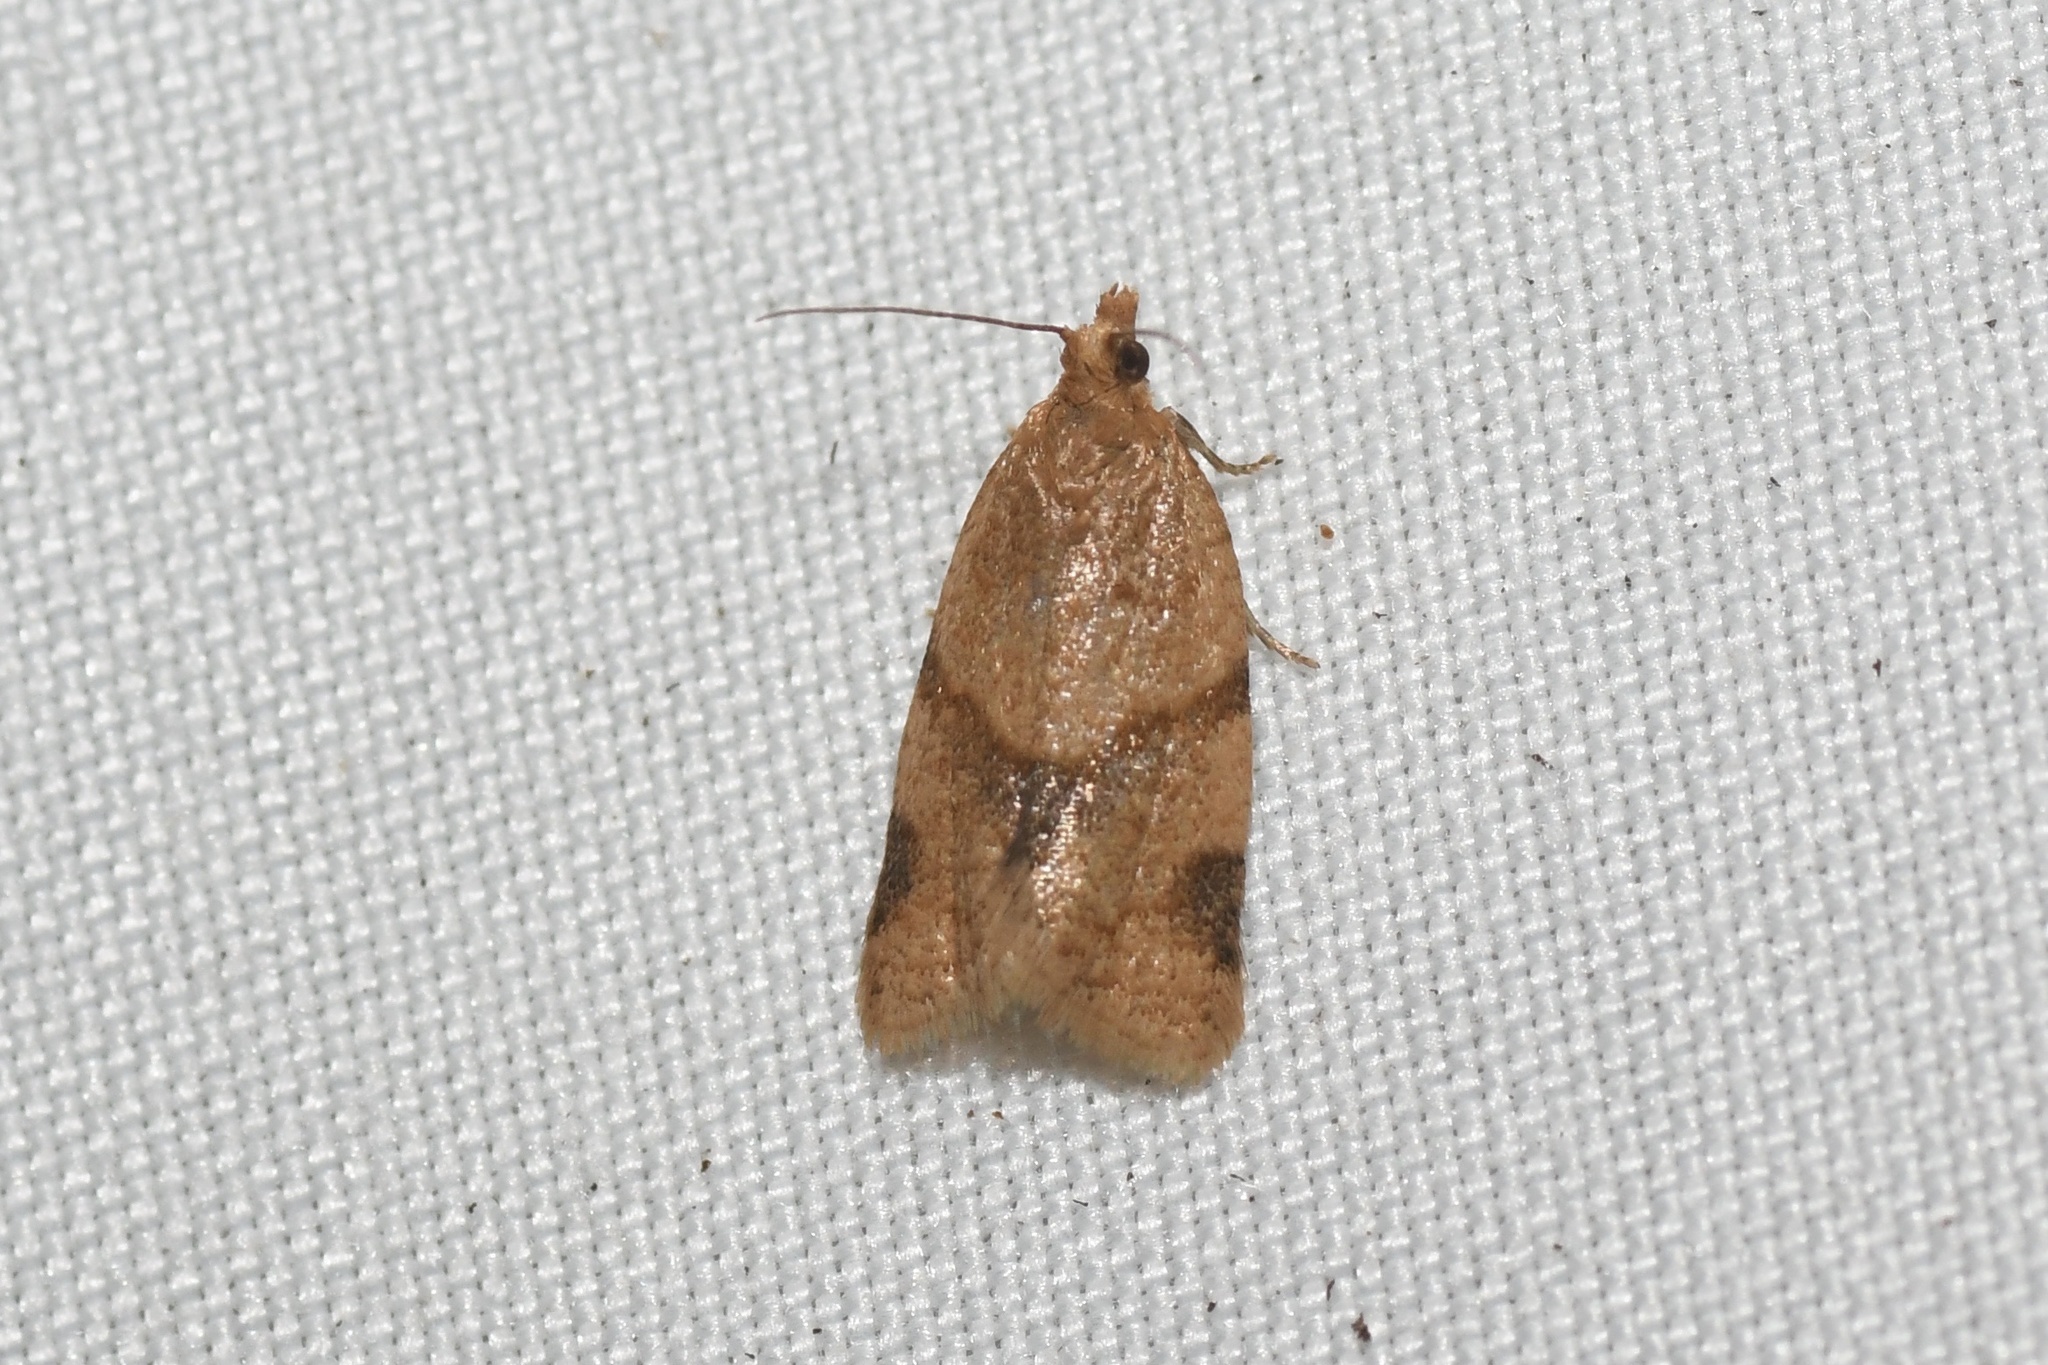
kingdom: Animalia
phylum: Arthropoda
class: Insecta
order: Lepidoptera
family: Tortricidae
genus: Clepsis
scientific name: Clepsis peritana
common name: Garden tortrix
